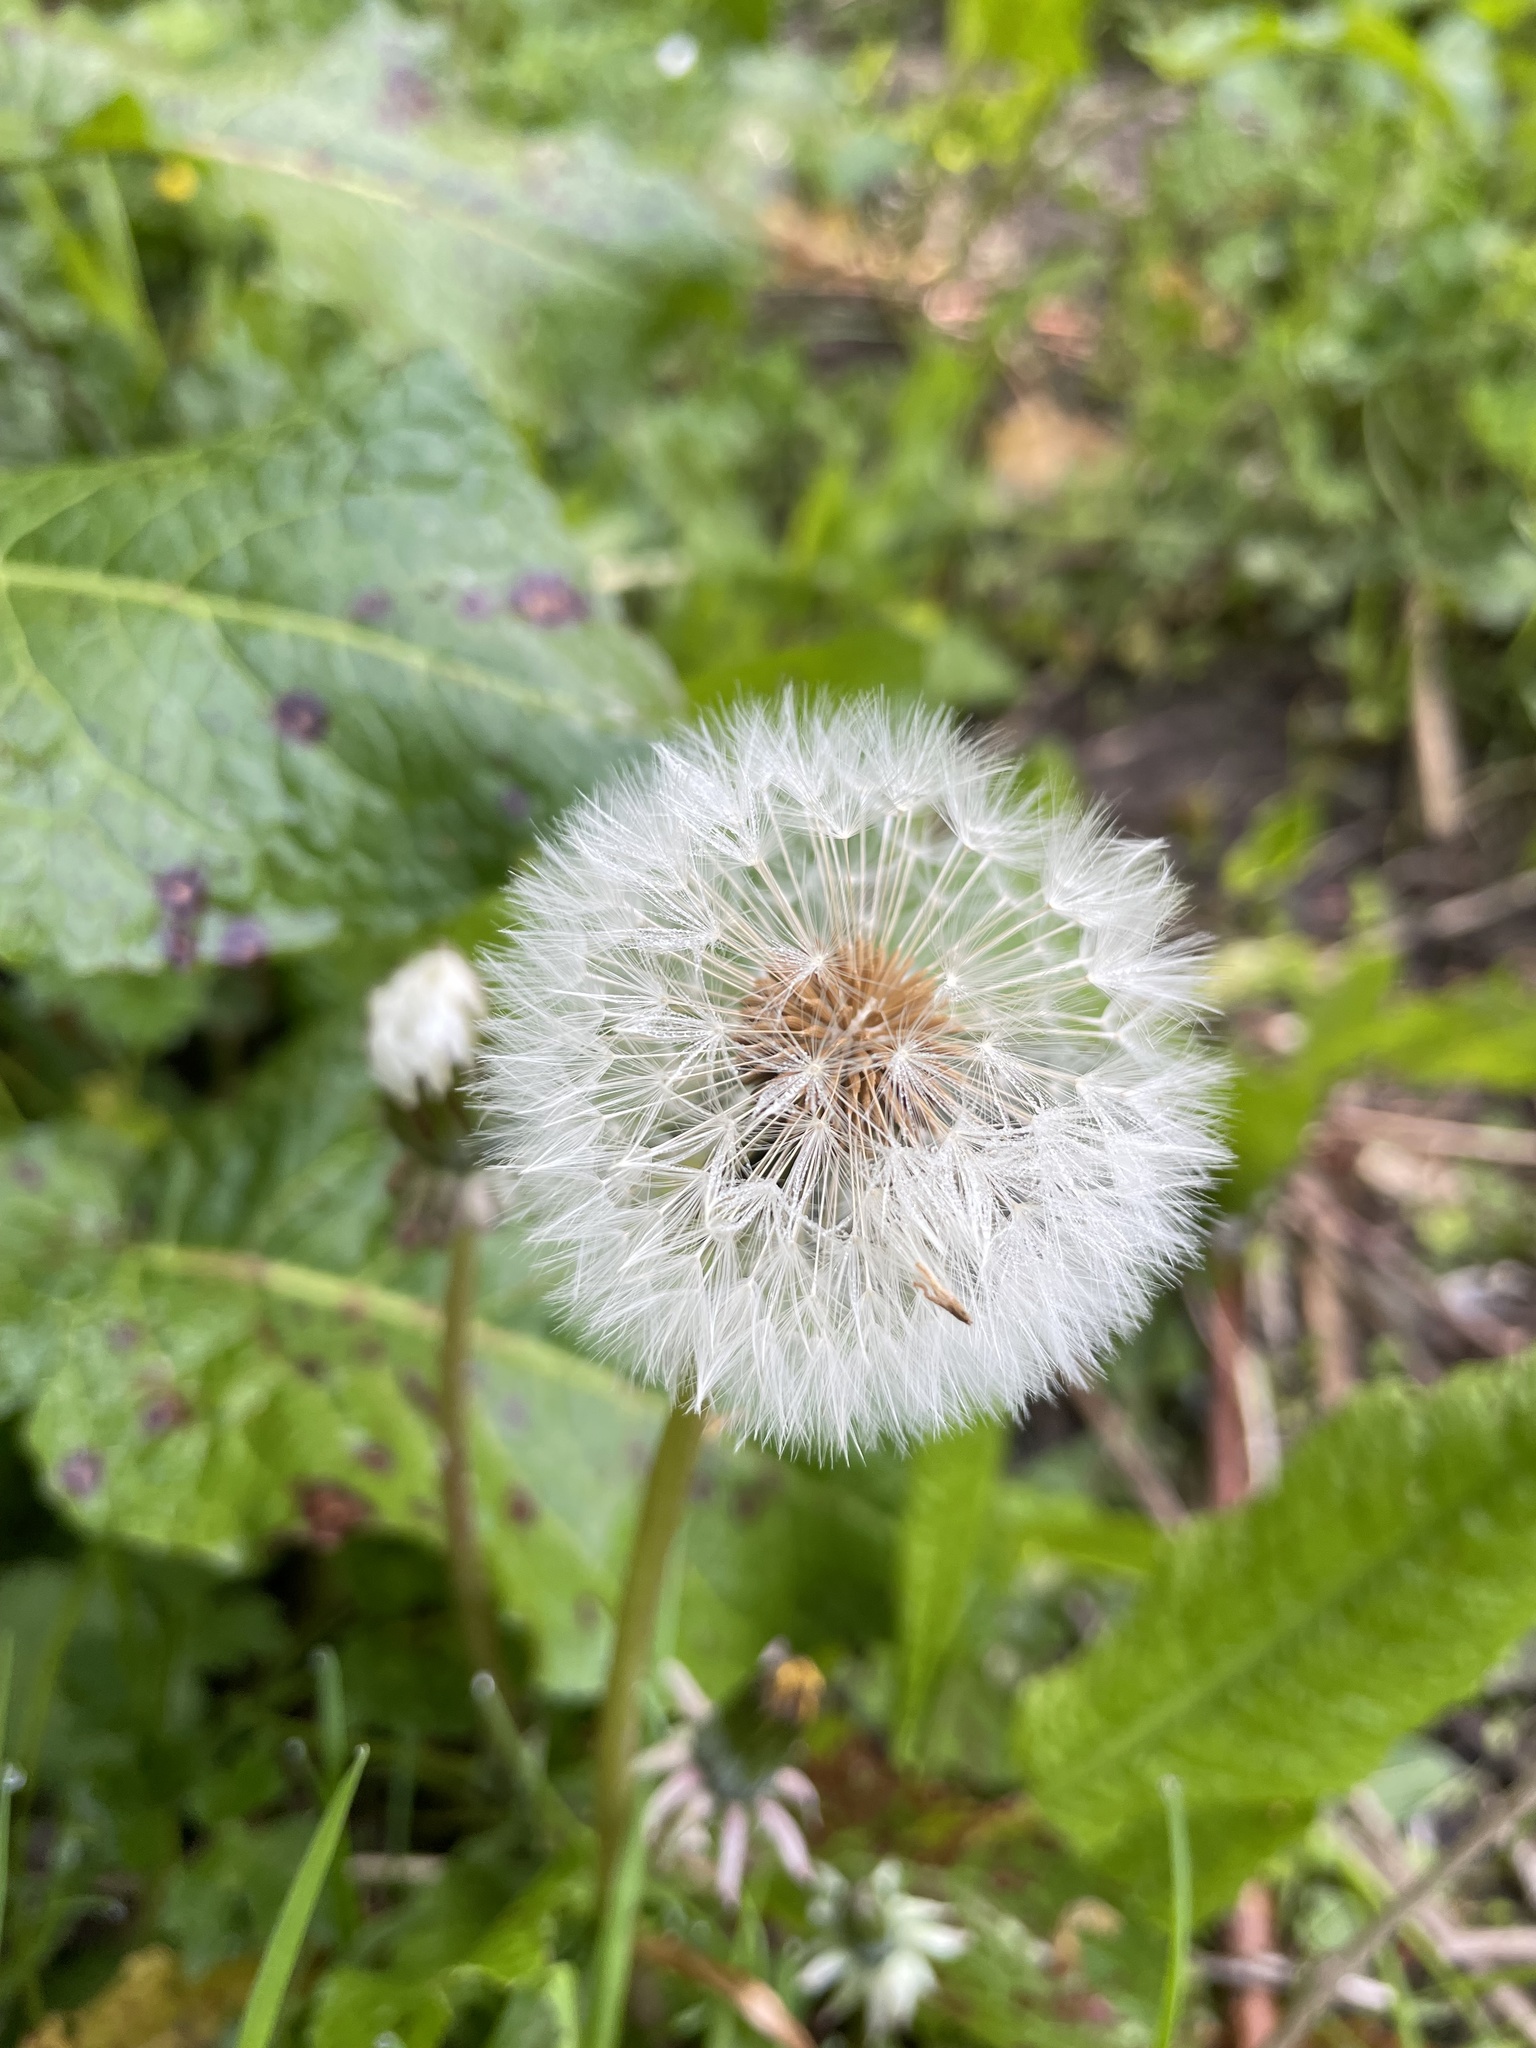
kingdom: Plantae
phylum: Tracheophyta
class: Magnoliopsida
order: Asterales
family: Asteraceae
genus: Taraxacum
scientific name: Taraxacum officinale
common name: Common dandelion
